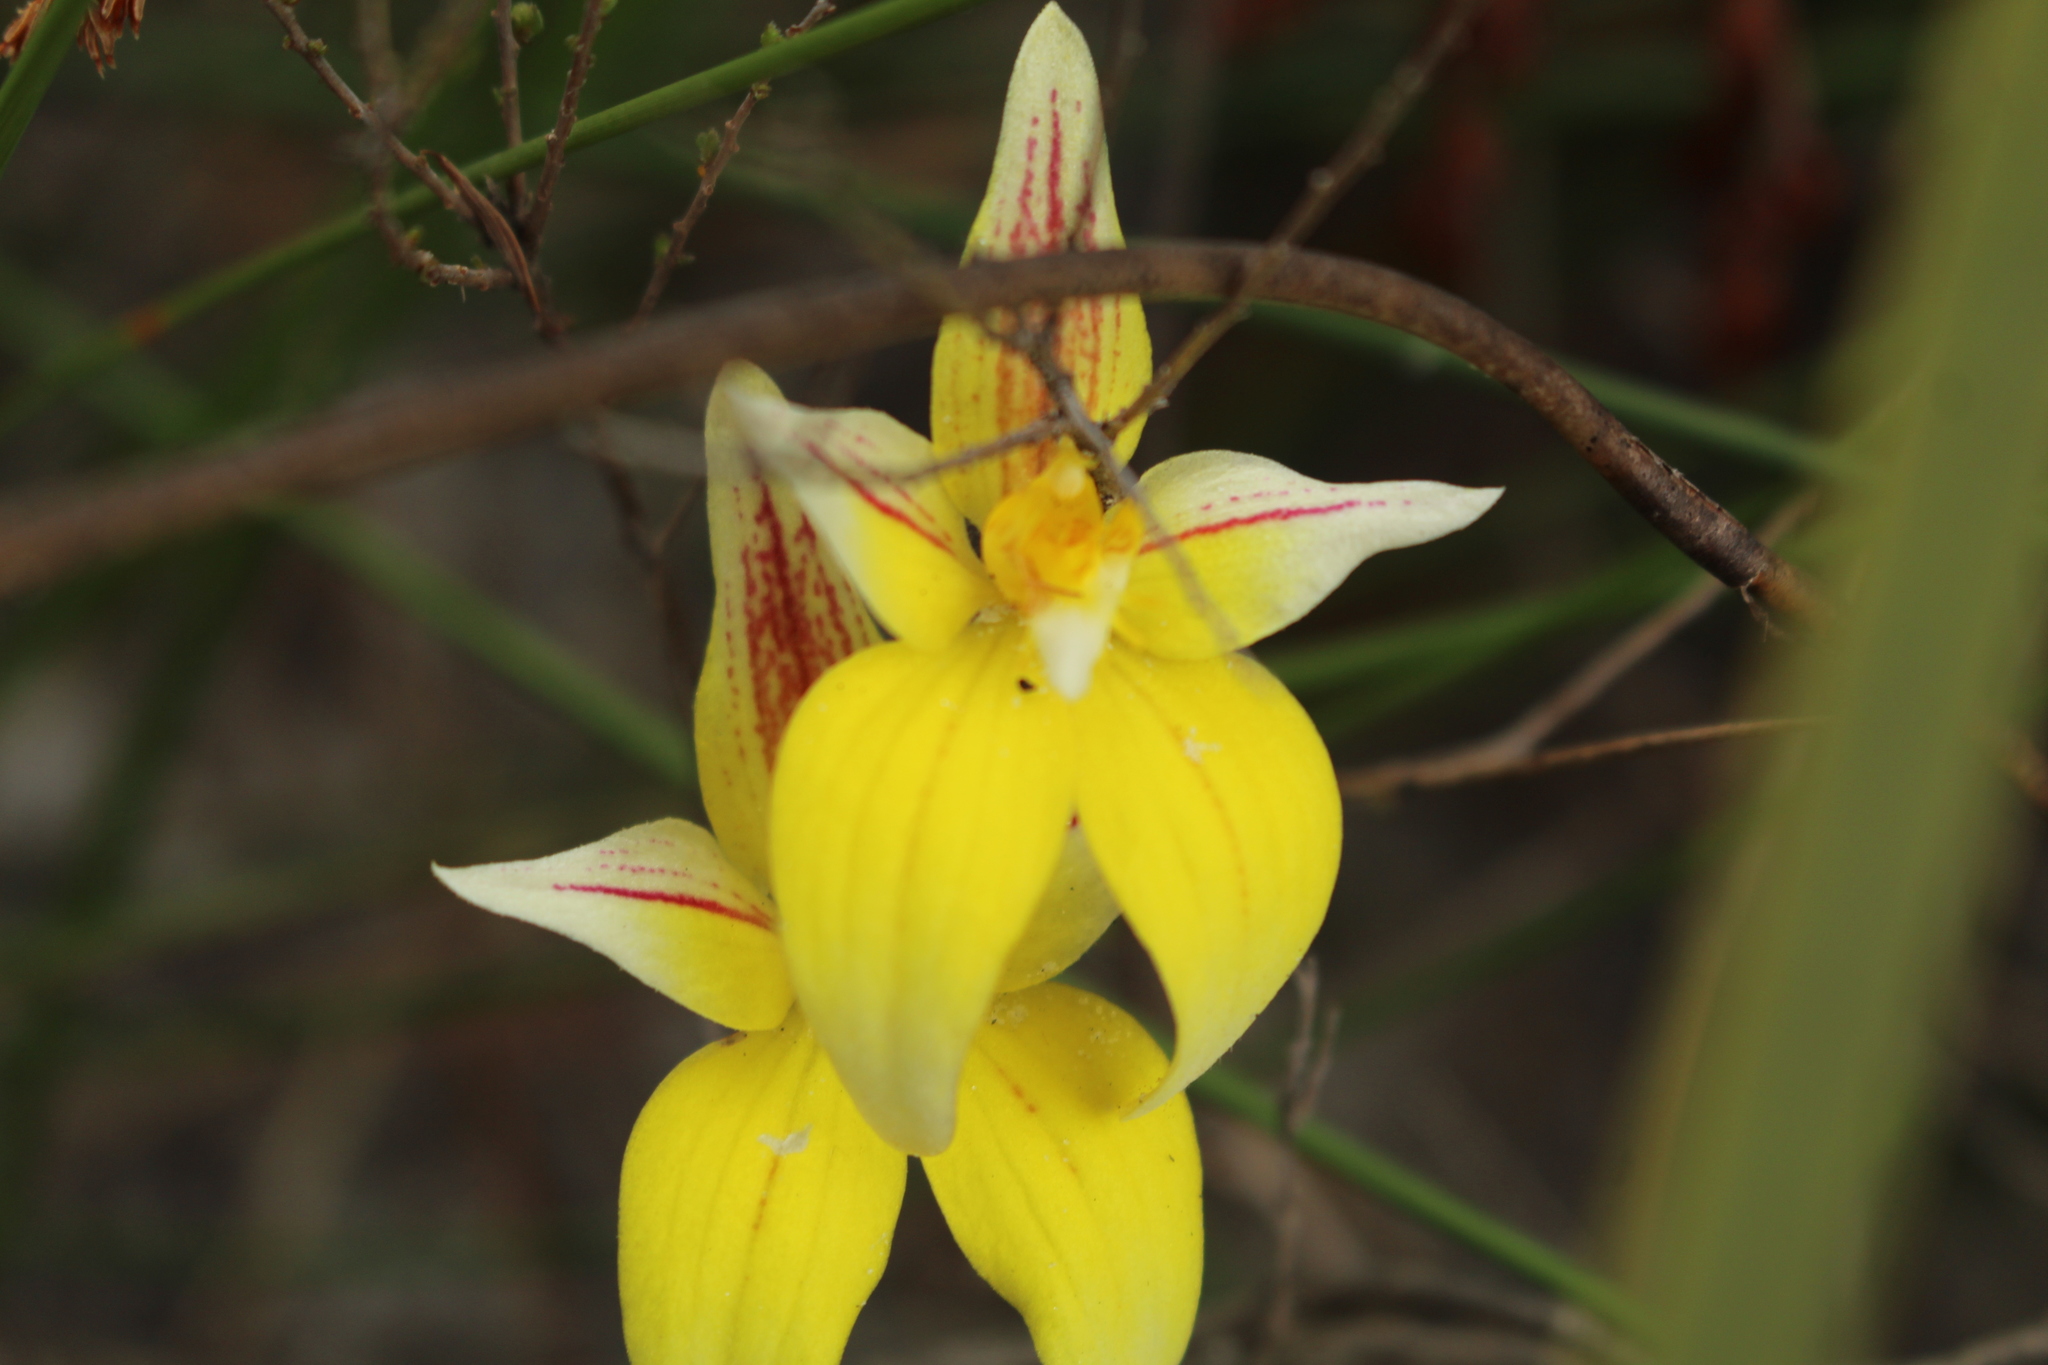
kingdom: Plantae
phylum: Tracheophyta
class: Liliopsida
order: Asparagales
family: Orchidaceae
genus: Caladenia
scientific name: Caladenia flava
